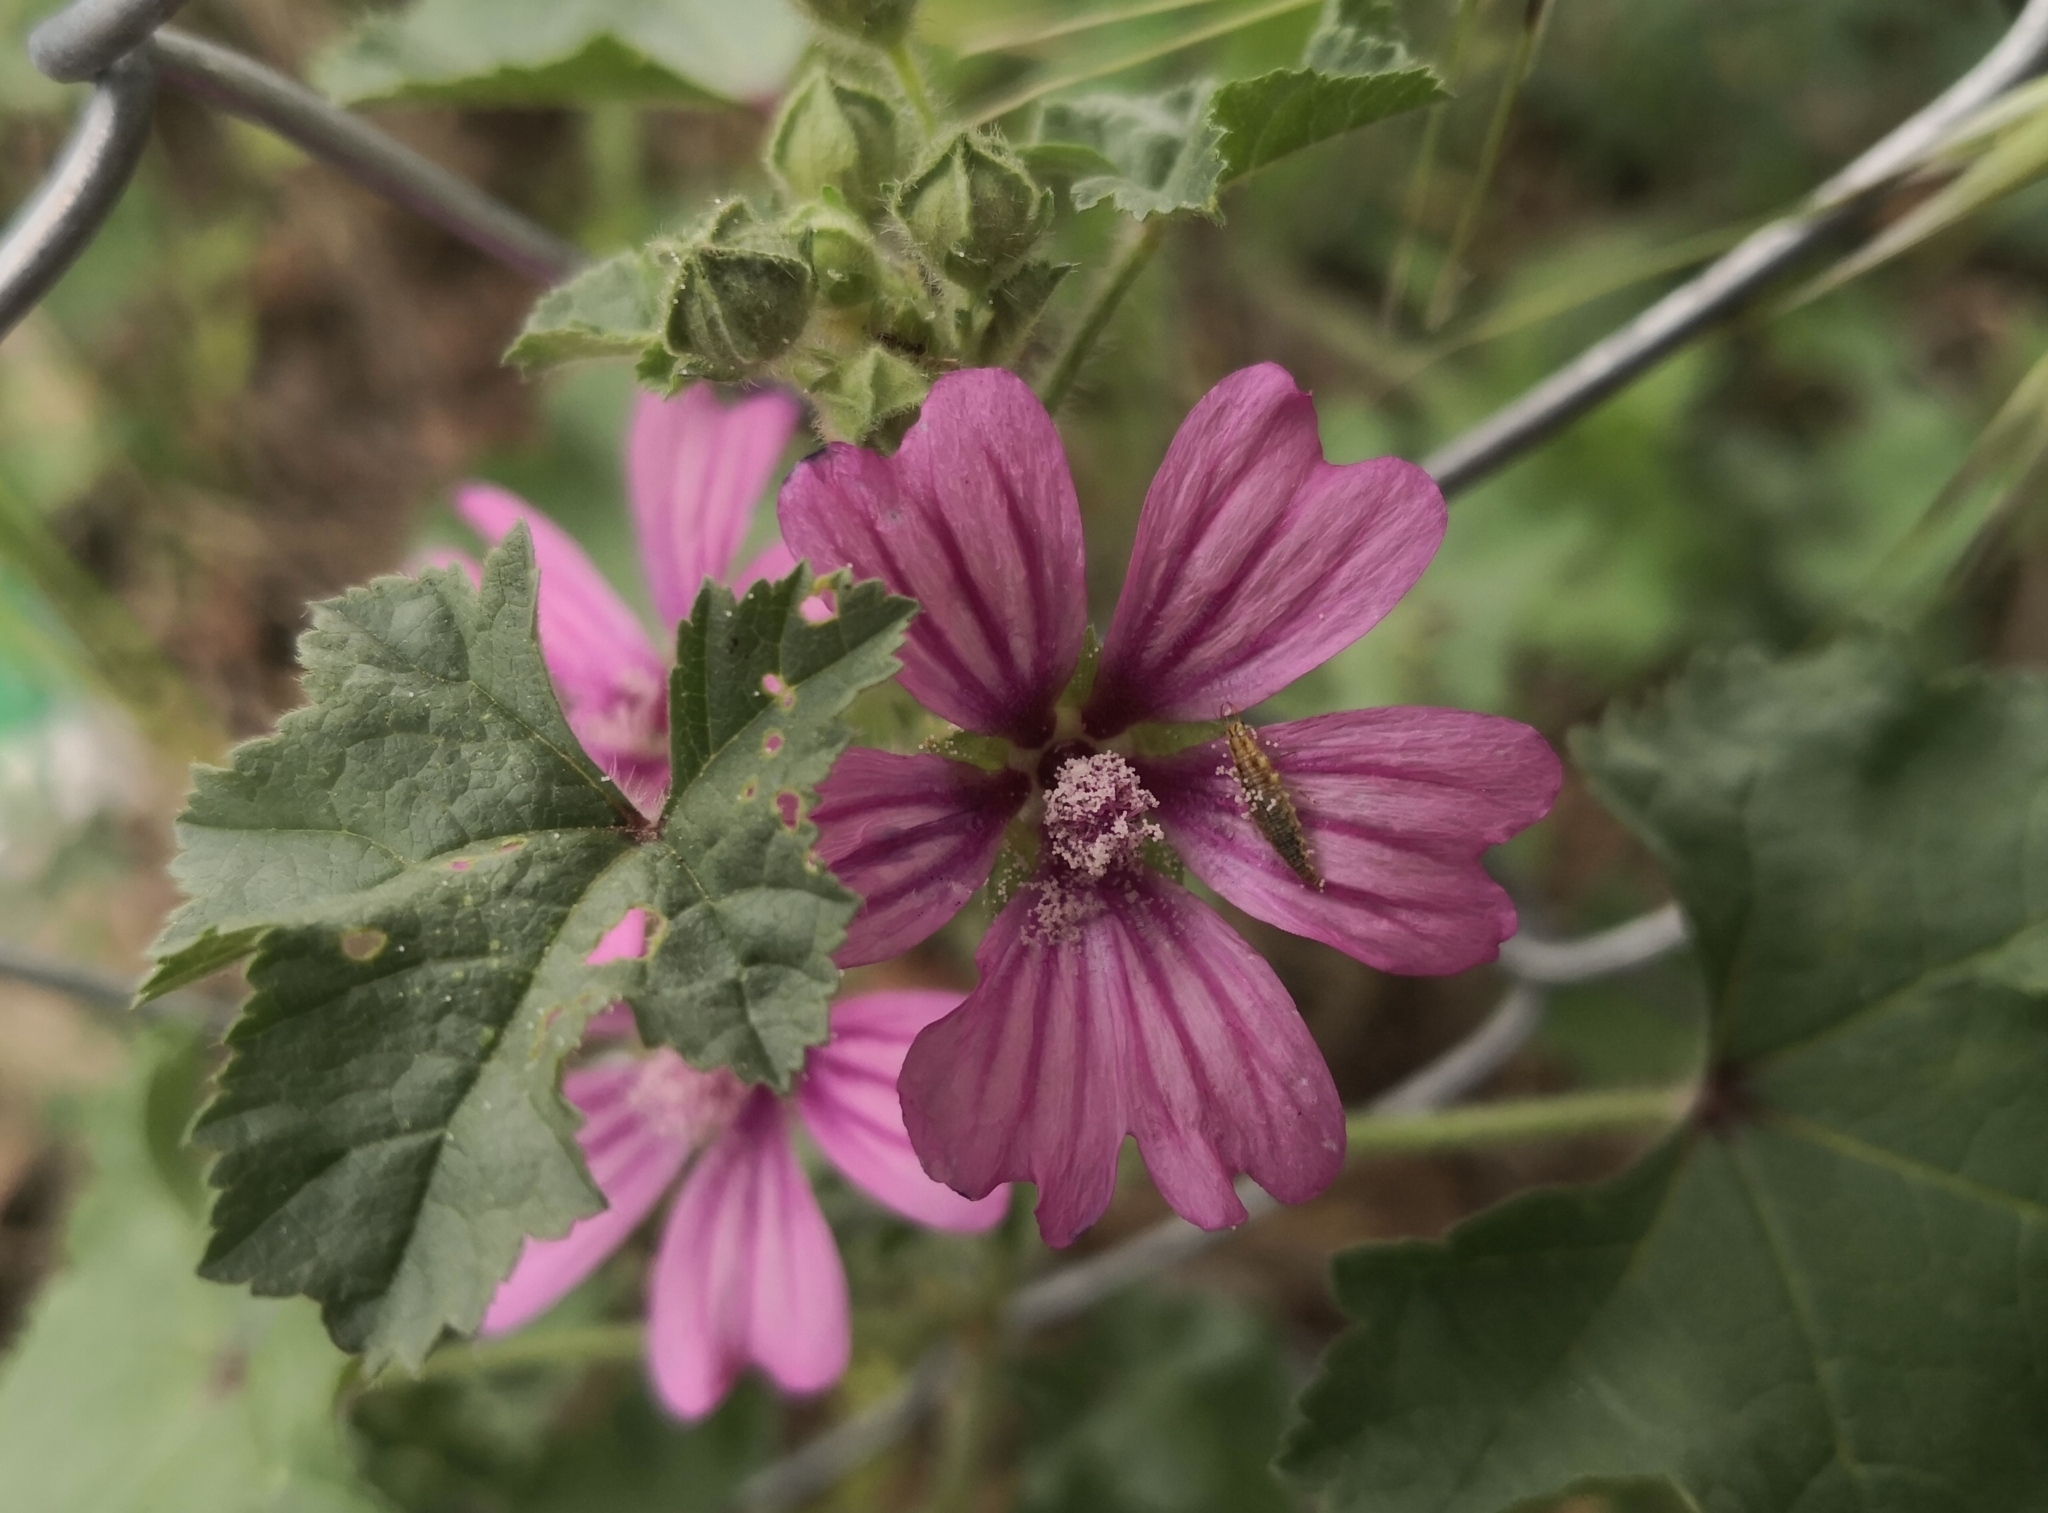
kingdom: Plantae
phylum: Tracheophyta
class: Magnoliopsida
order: Malvales
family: Malvaceae
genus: Malva
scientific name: Malva sylvestris
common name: Common mallow
